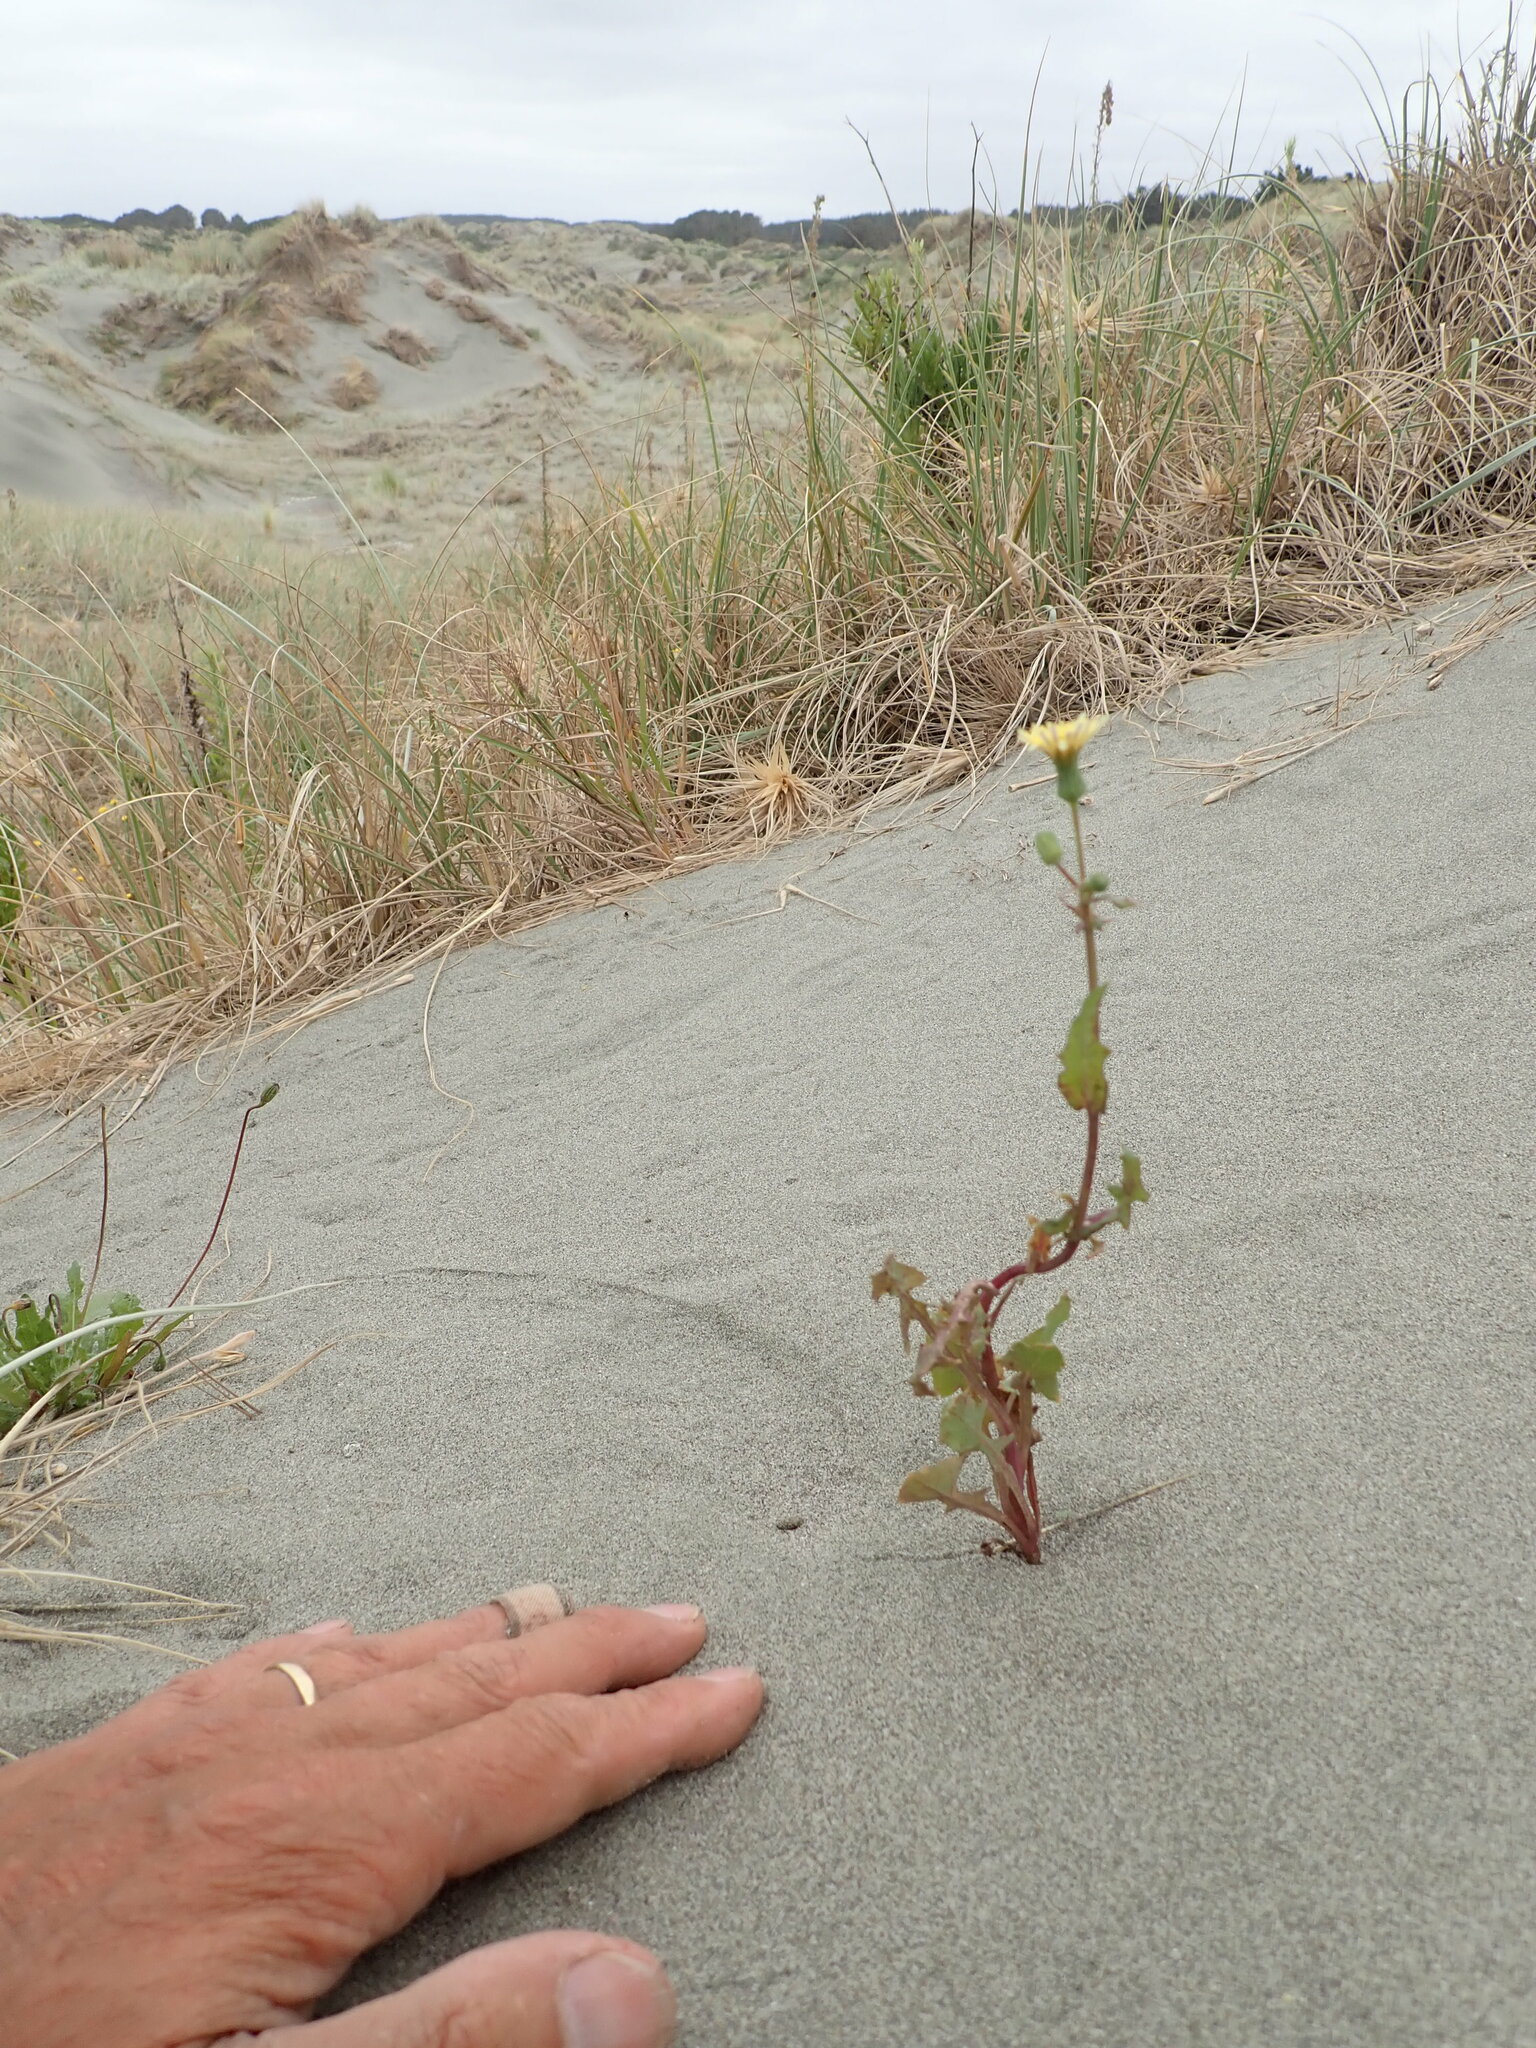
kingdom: Plantae
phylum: Tracheophyta
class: Magnoliopsida
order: Asterales
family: Asteraceae
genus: Sonchus
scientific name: Sonchus oleraceus
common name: Common sowthistle
